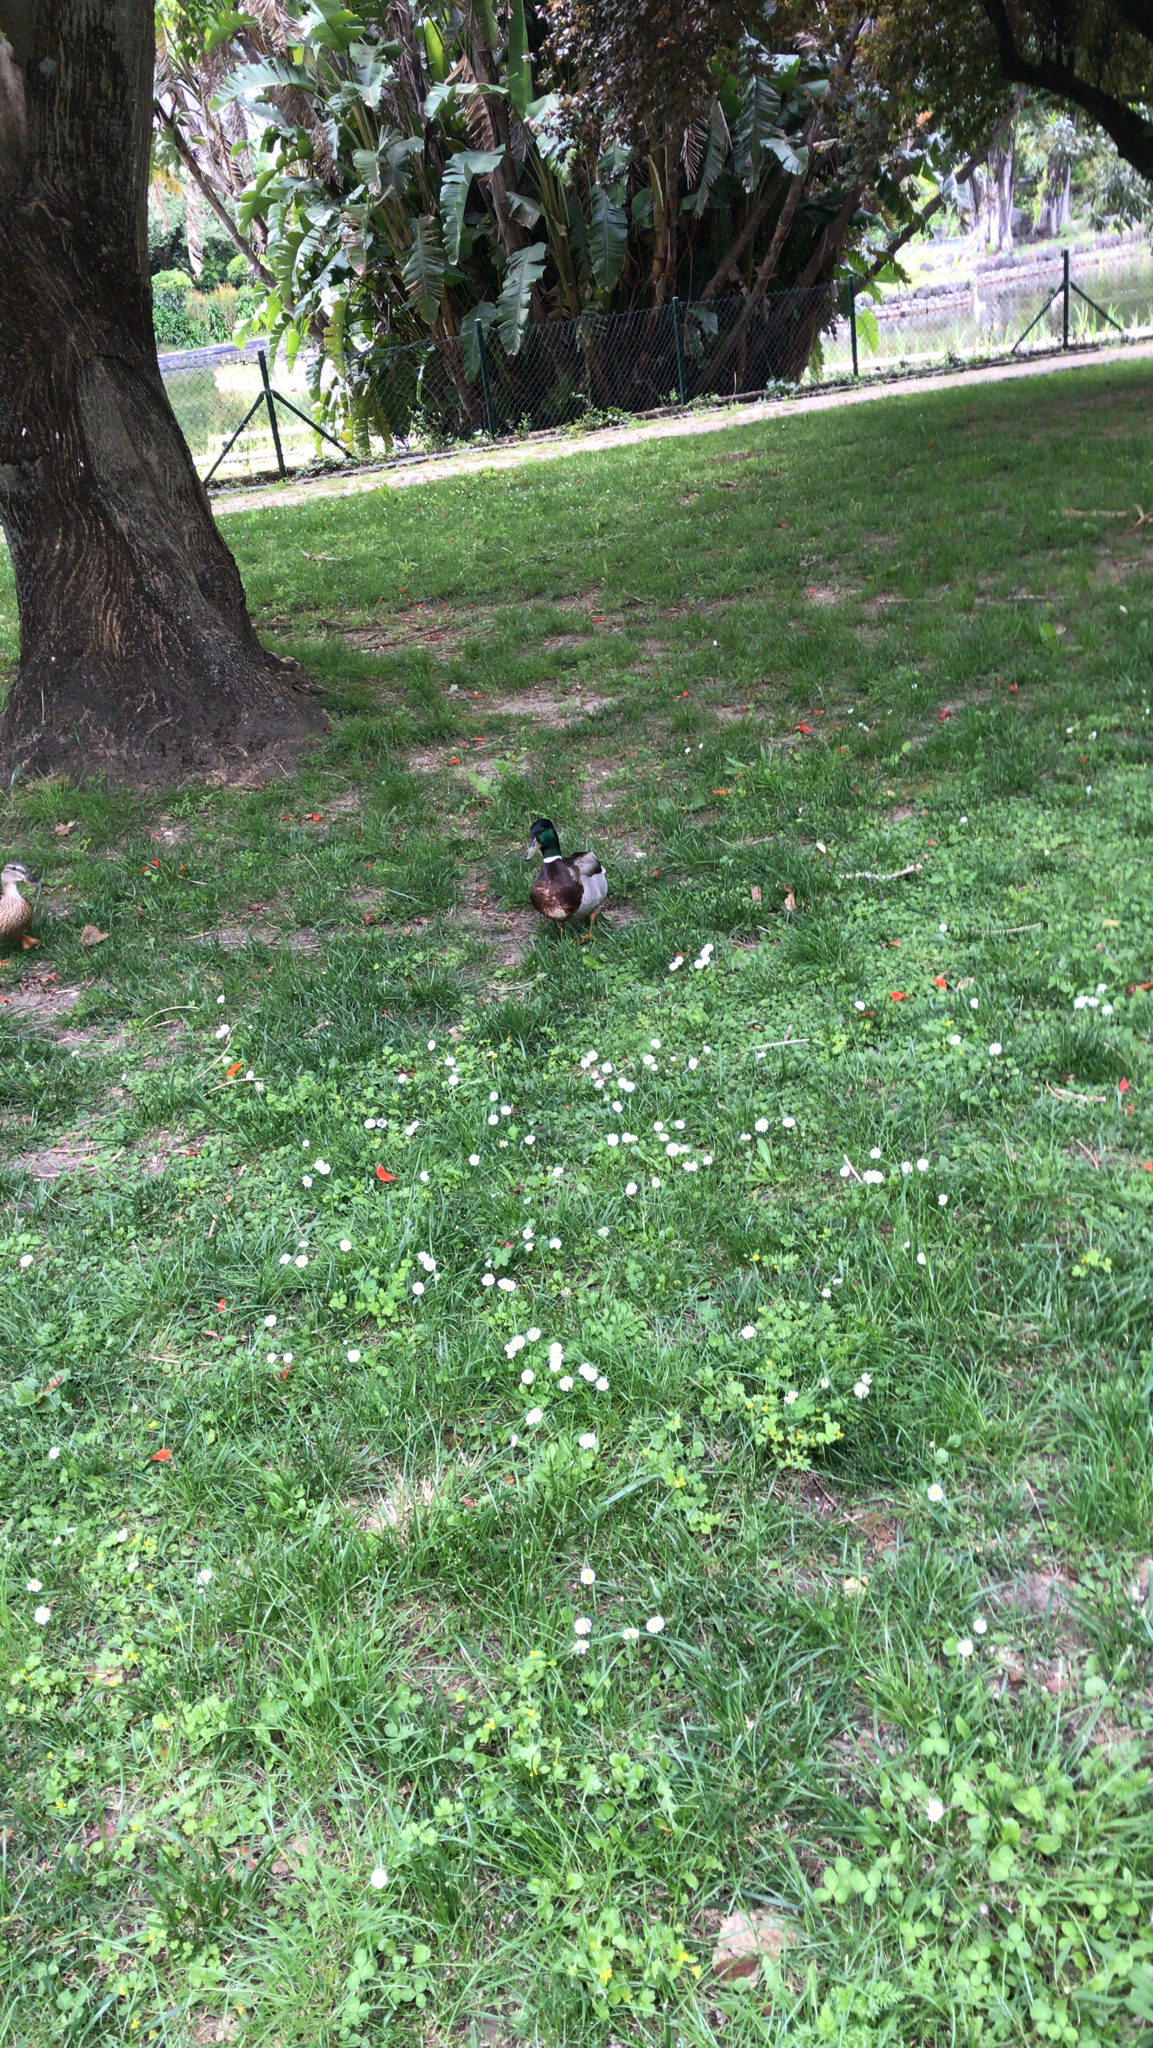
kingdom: Animalia
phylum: Chordata
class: Aves
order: Anseriformes
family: Anatidae
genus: Anas
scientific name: Anas platyrhynchos
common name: Mallard
